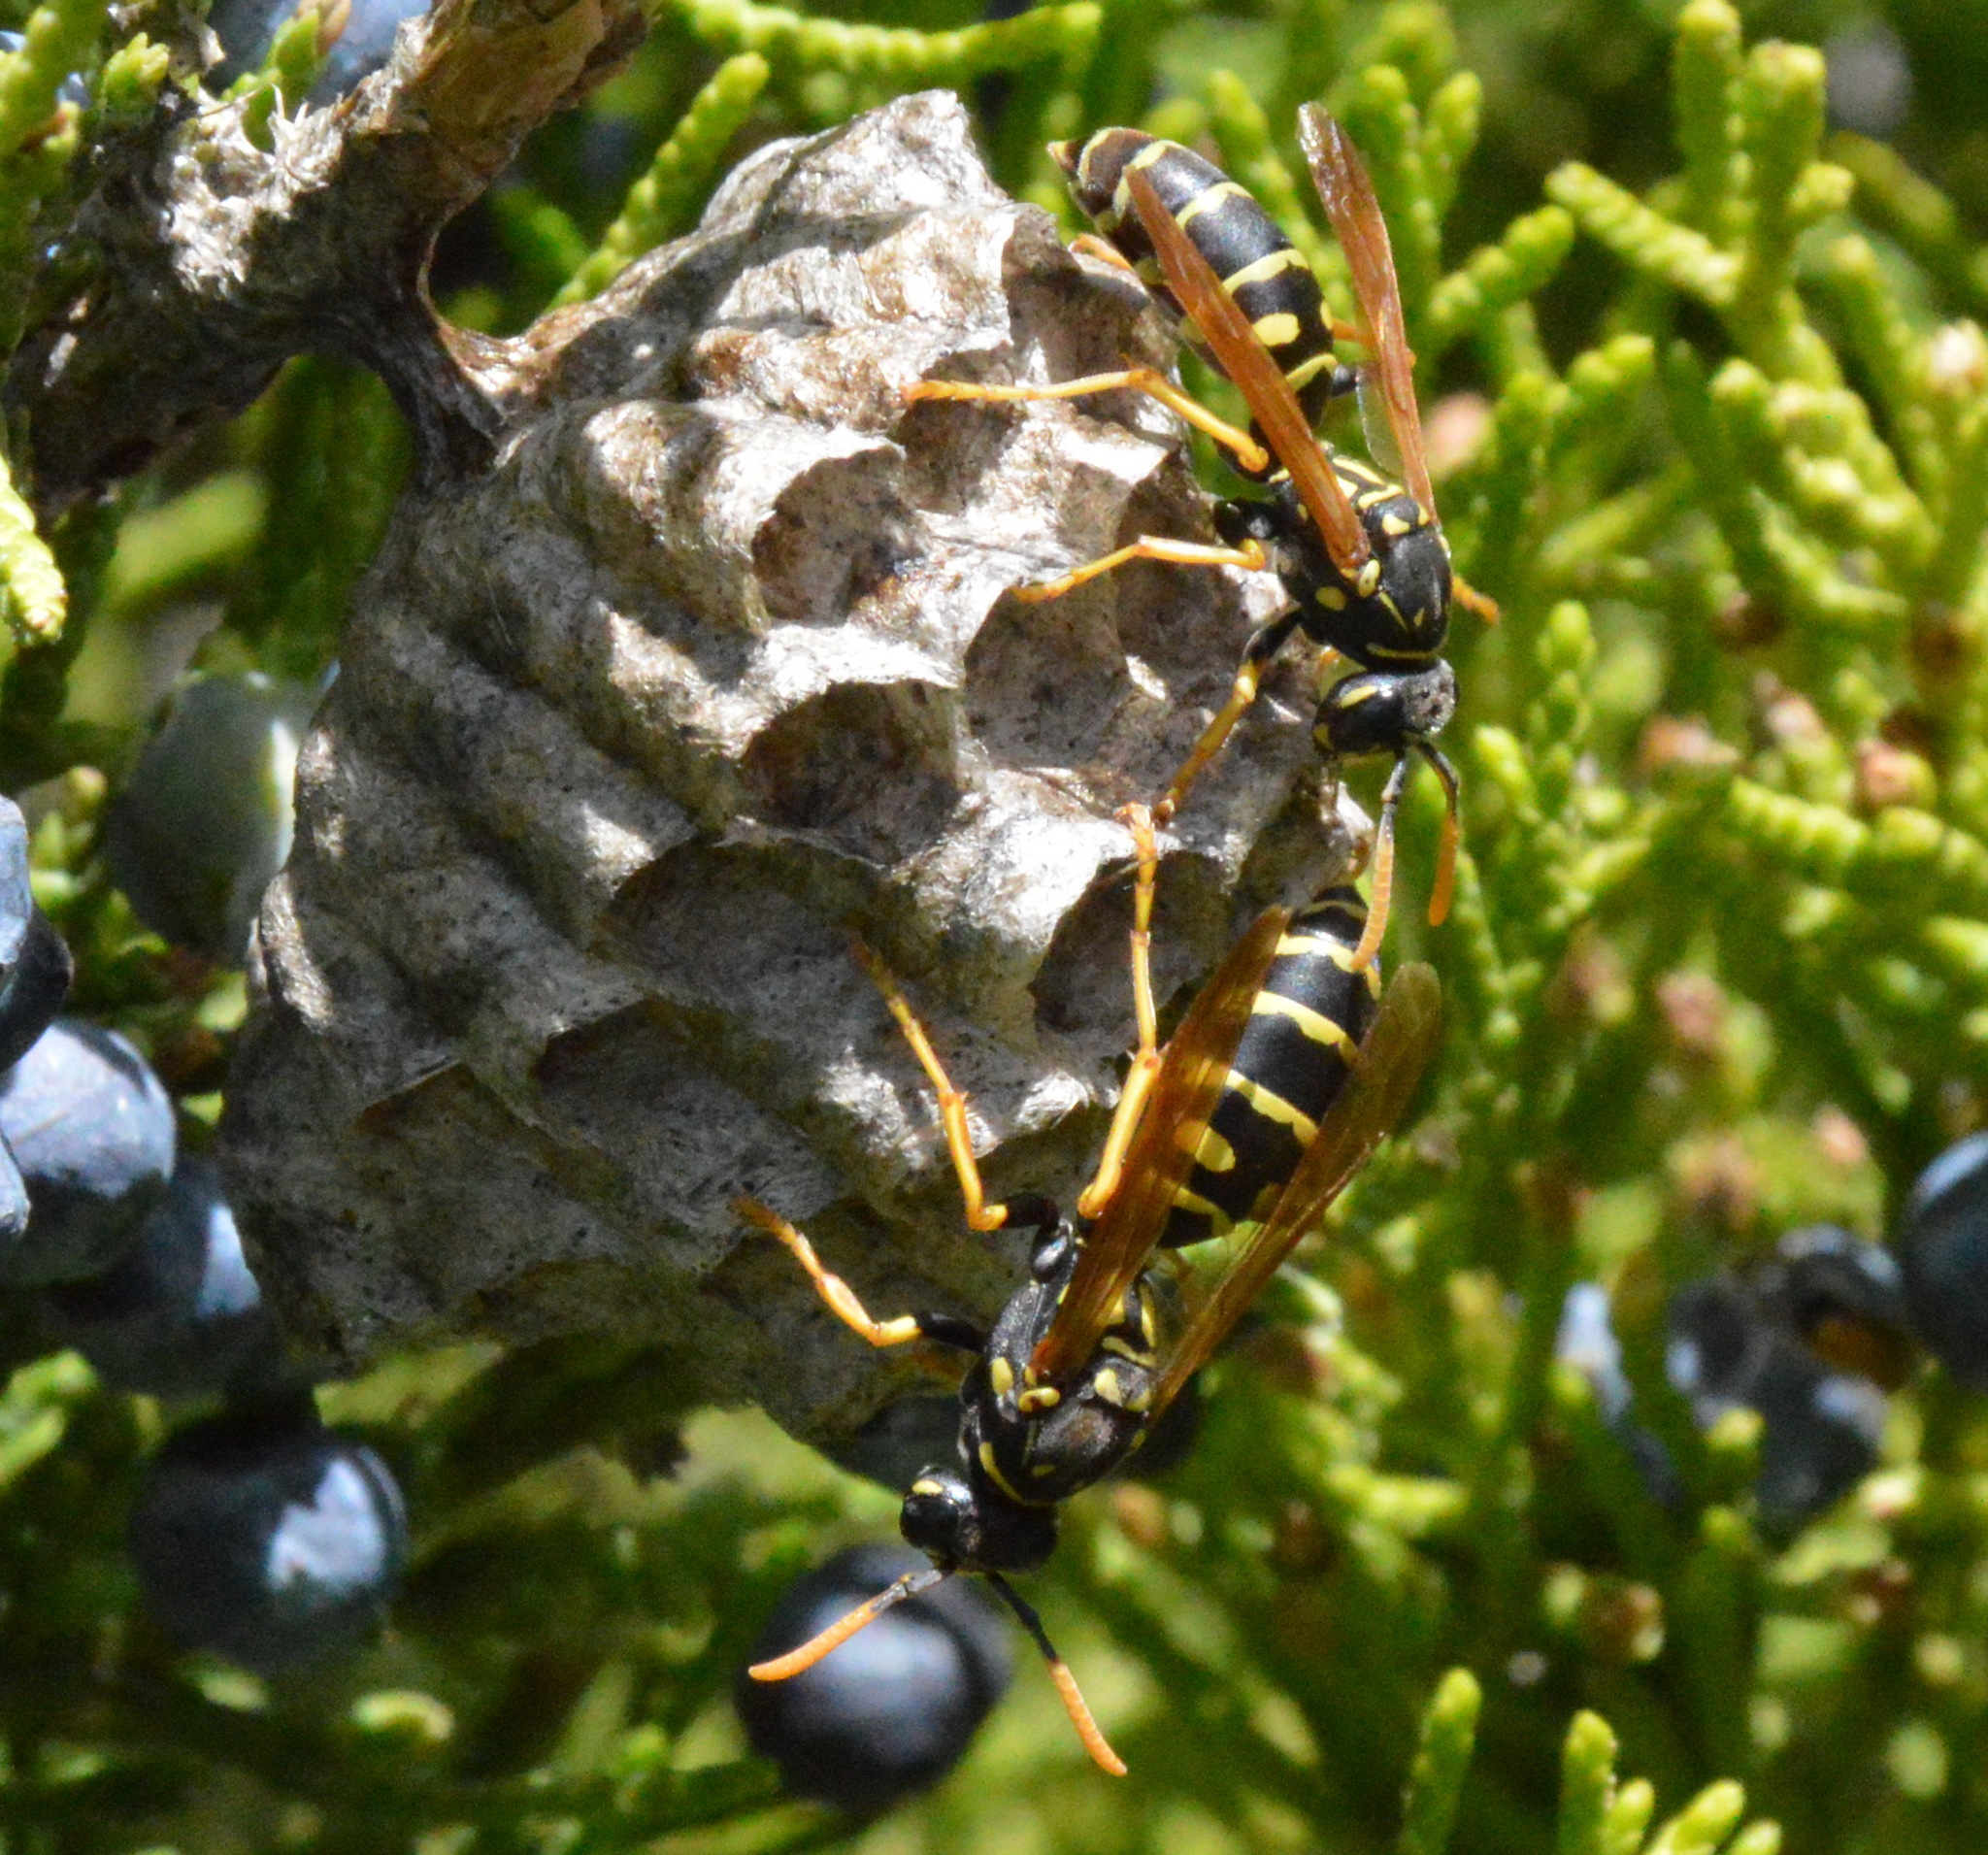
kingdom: Animalia
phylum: Arthropoda
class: Insecta
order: Hymenoptera
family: Eumenidae
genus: Polistes
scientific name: Polistes dominula
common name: Paper wasp
